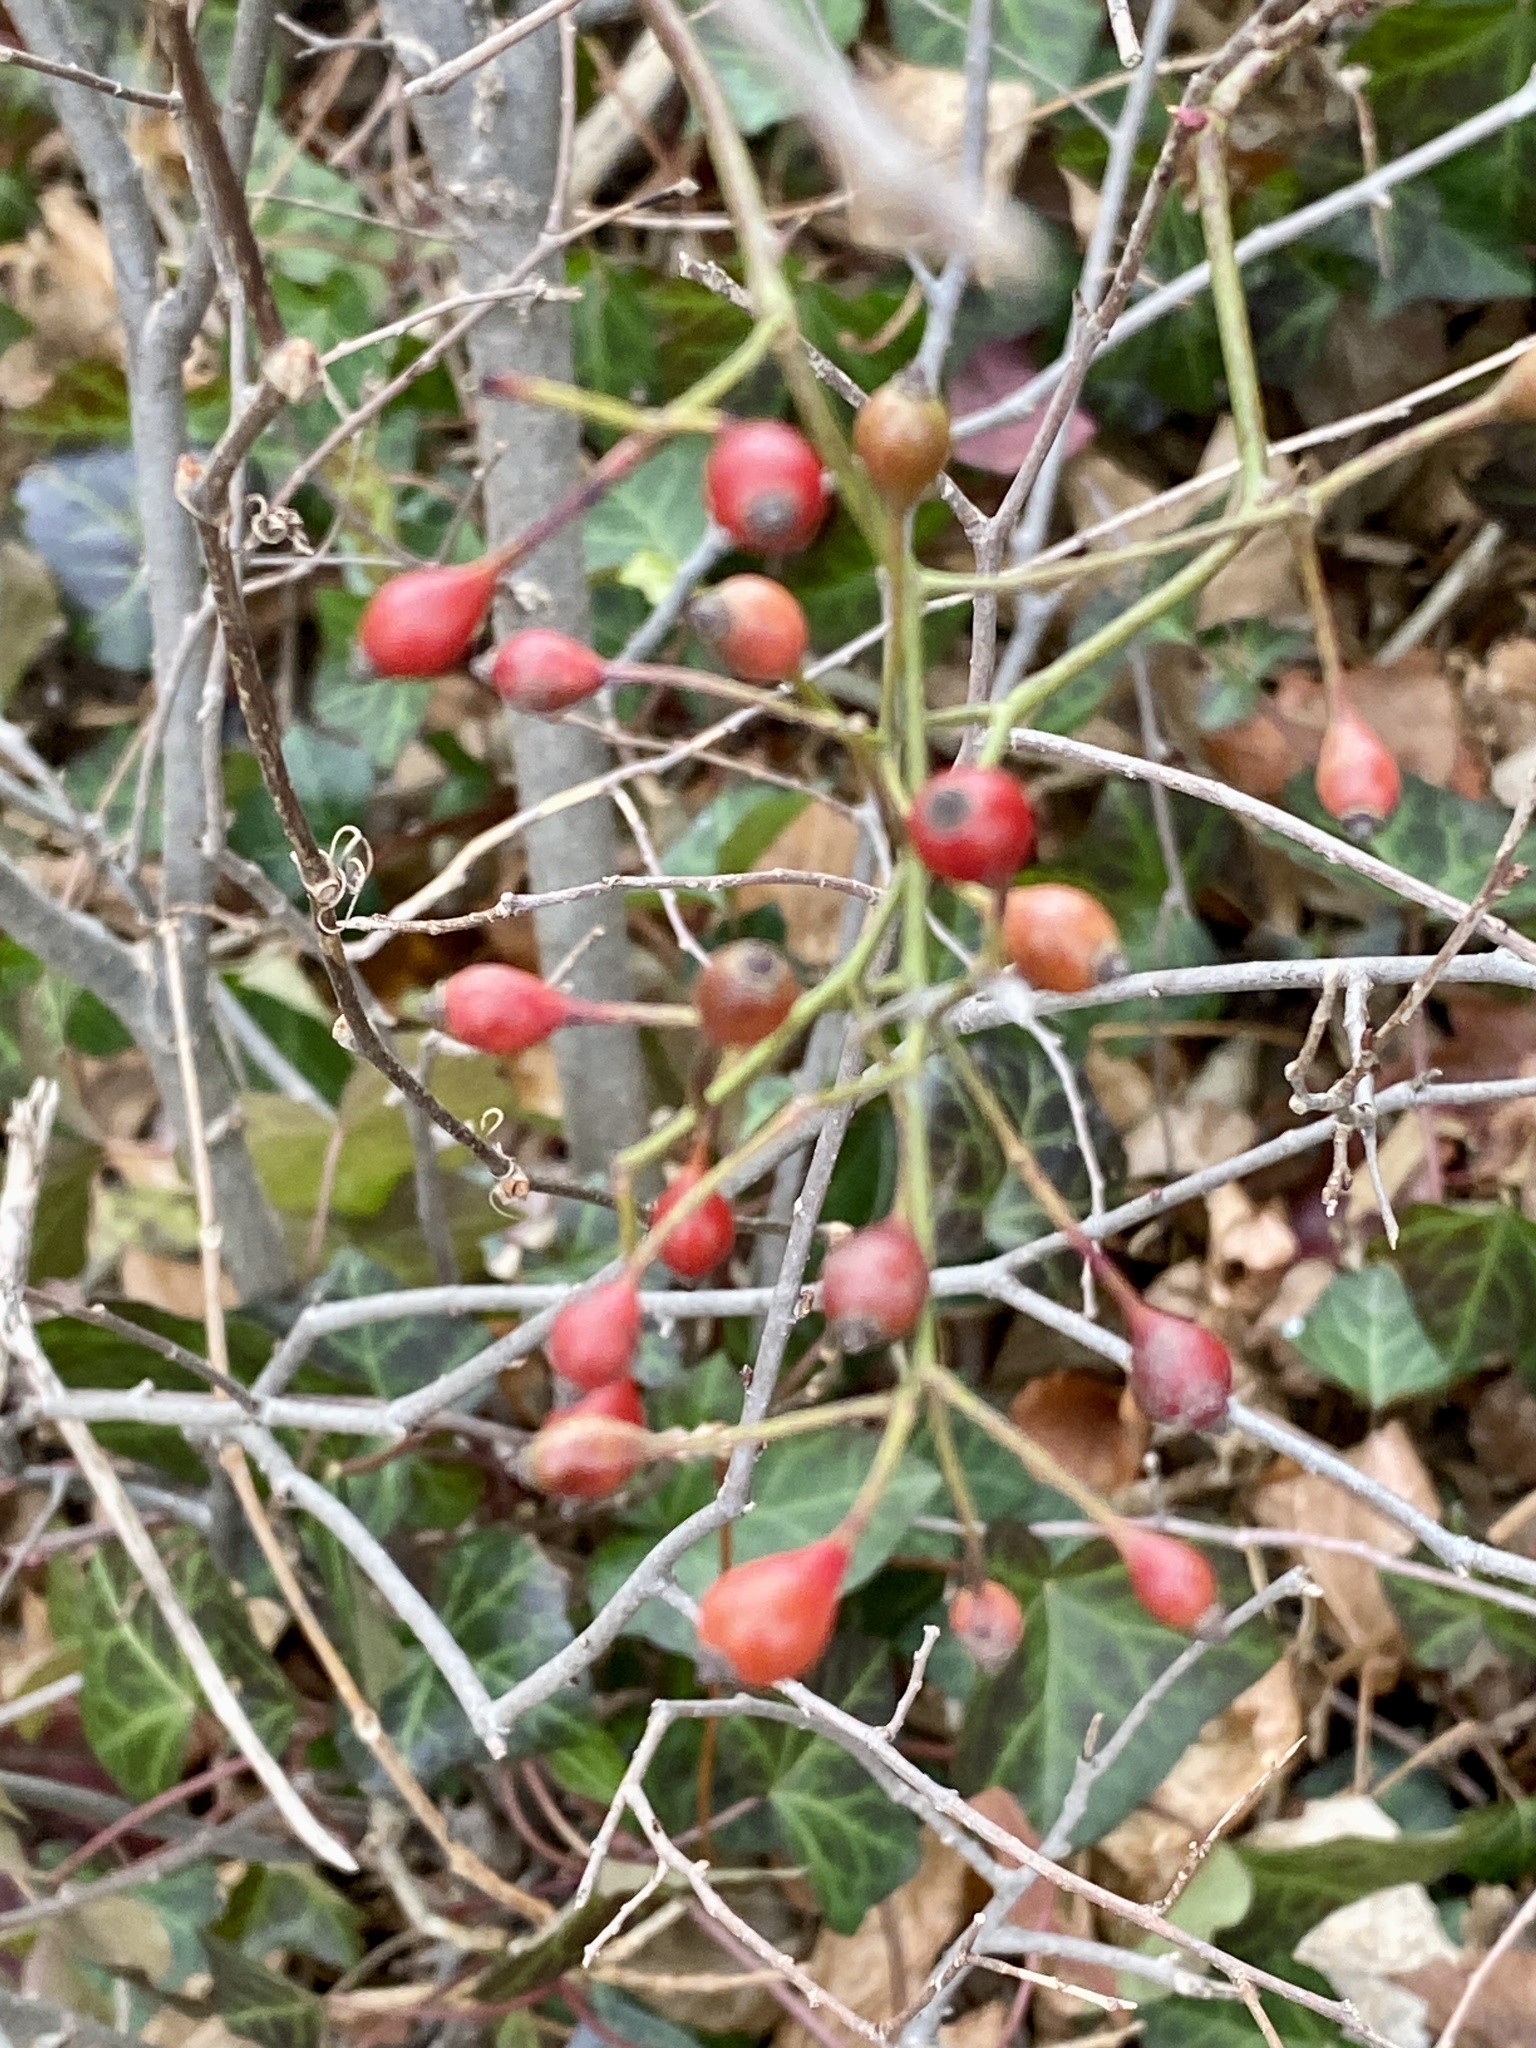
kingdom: Plantae
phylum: Tracheophyta
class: Magnoliopsida
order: Rosales
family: Rosaceae
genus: Rosa
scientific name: Rosa multiflora
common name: Multiflora rose
